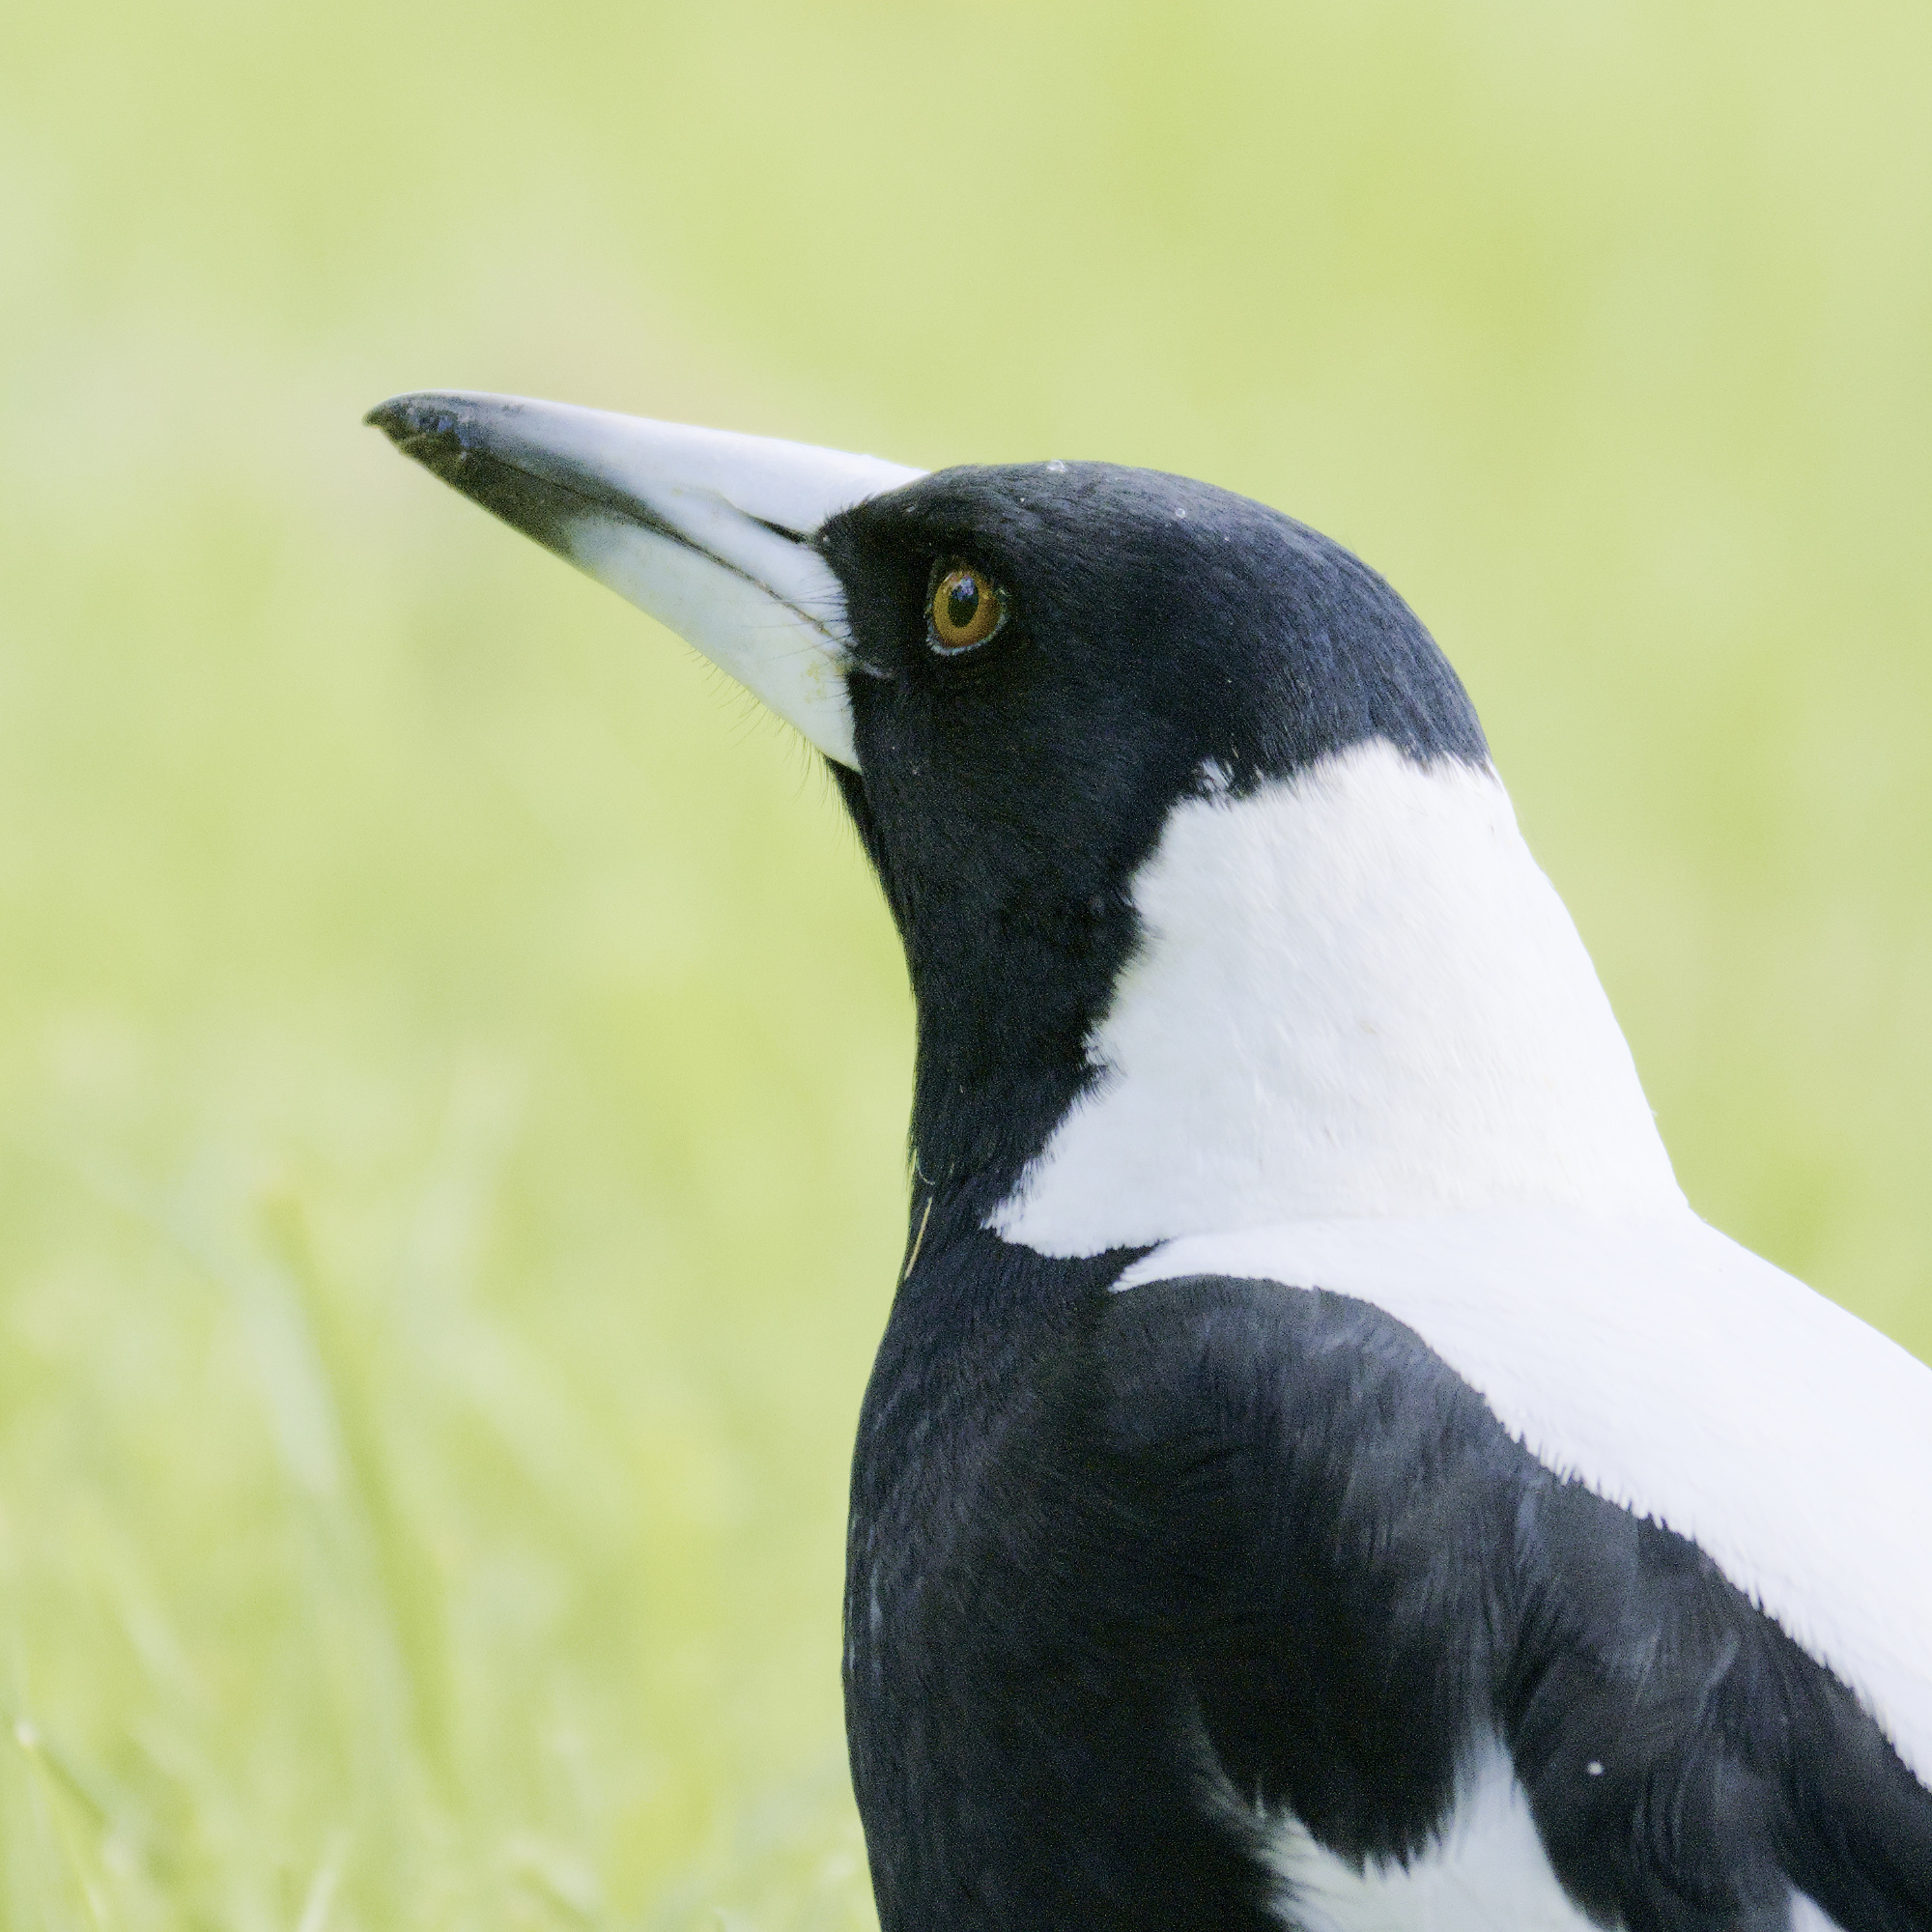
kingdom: Animalia
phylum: Chordata
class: Aves
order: Passeriformes
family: Cracticidae
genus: Gymnorhina
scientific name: Gymnorhina tibicen
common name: Australian magpie
